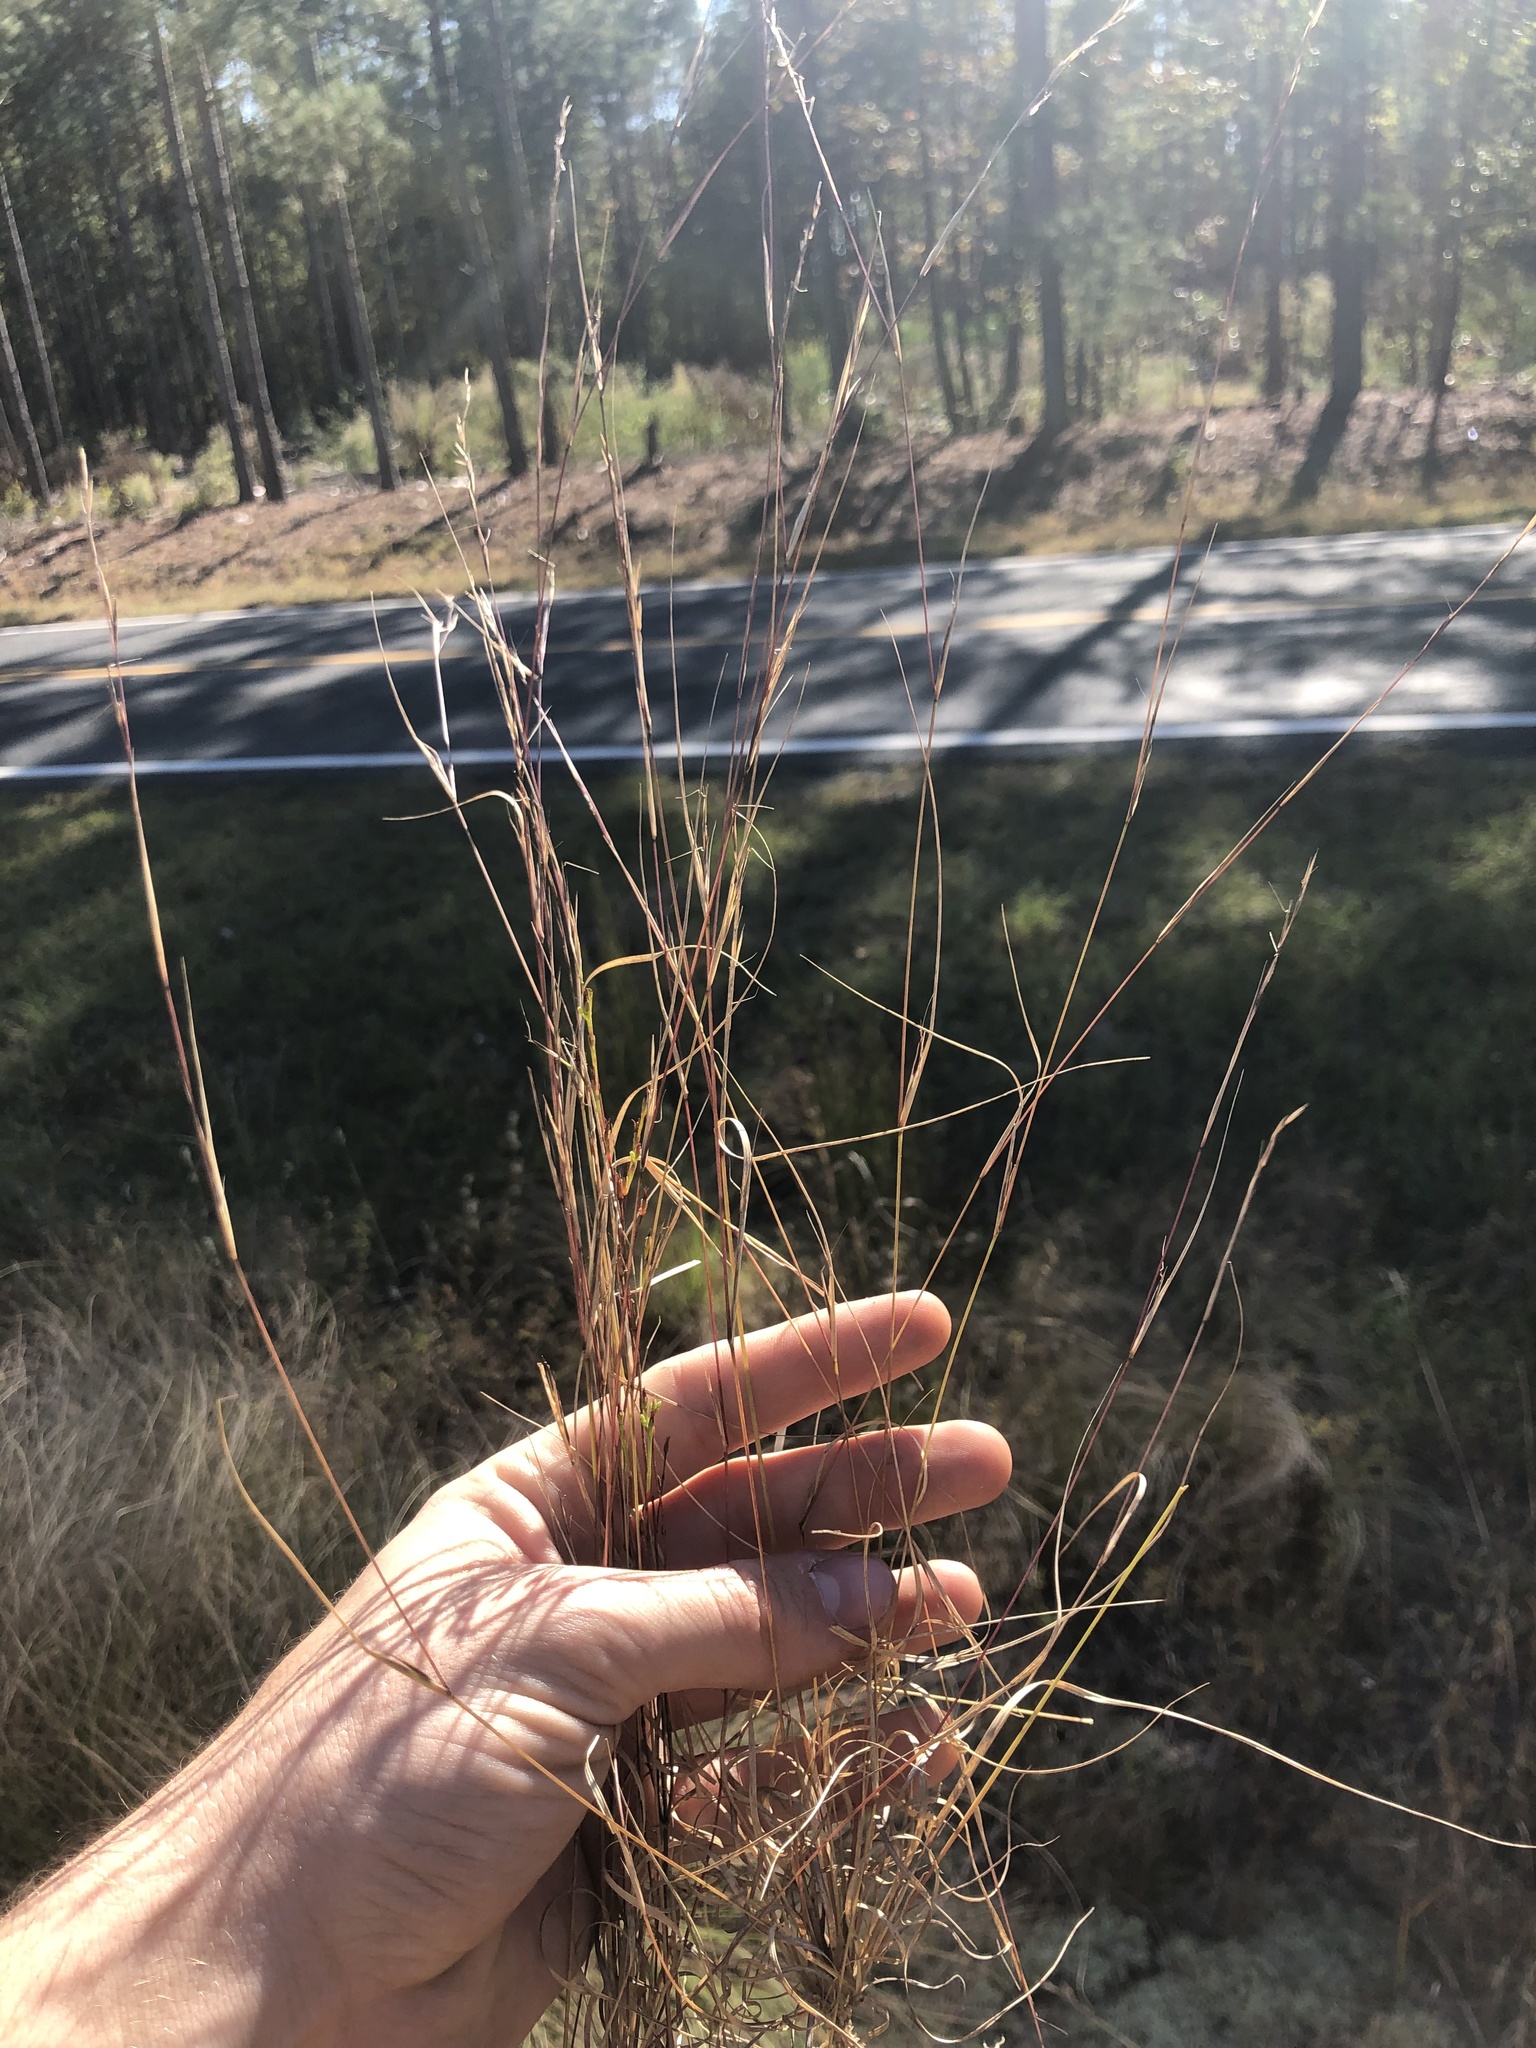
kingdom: Plantae
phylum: Tracheophyta
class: Liliopsida
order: Poales
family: Poaceae
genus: Aristida
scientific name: Aristida longespica
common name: Long-spiked triple-awned grass
